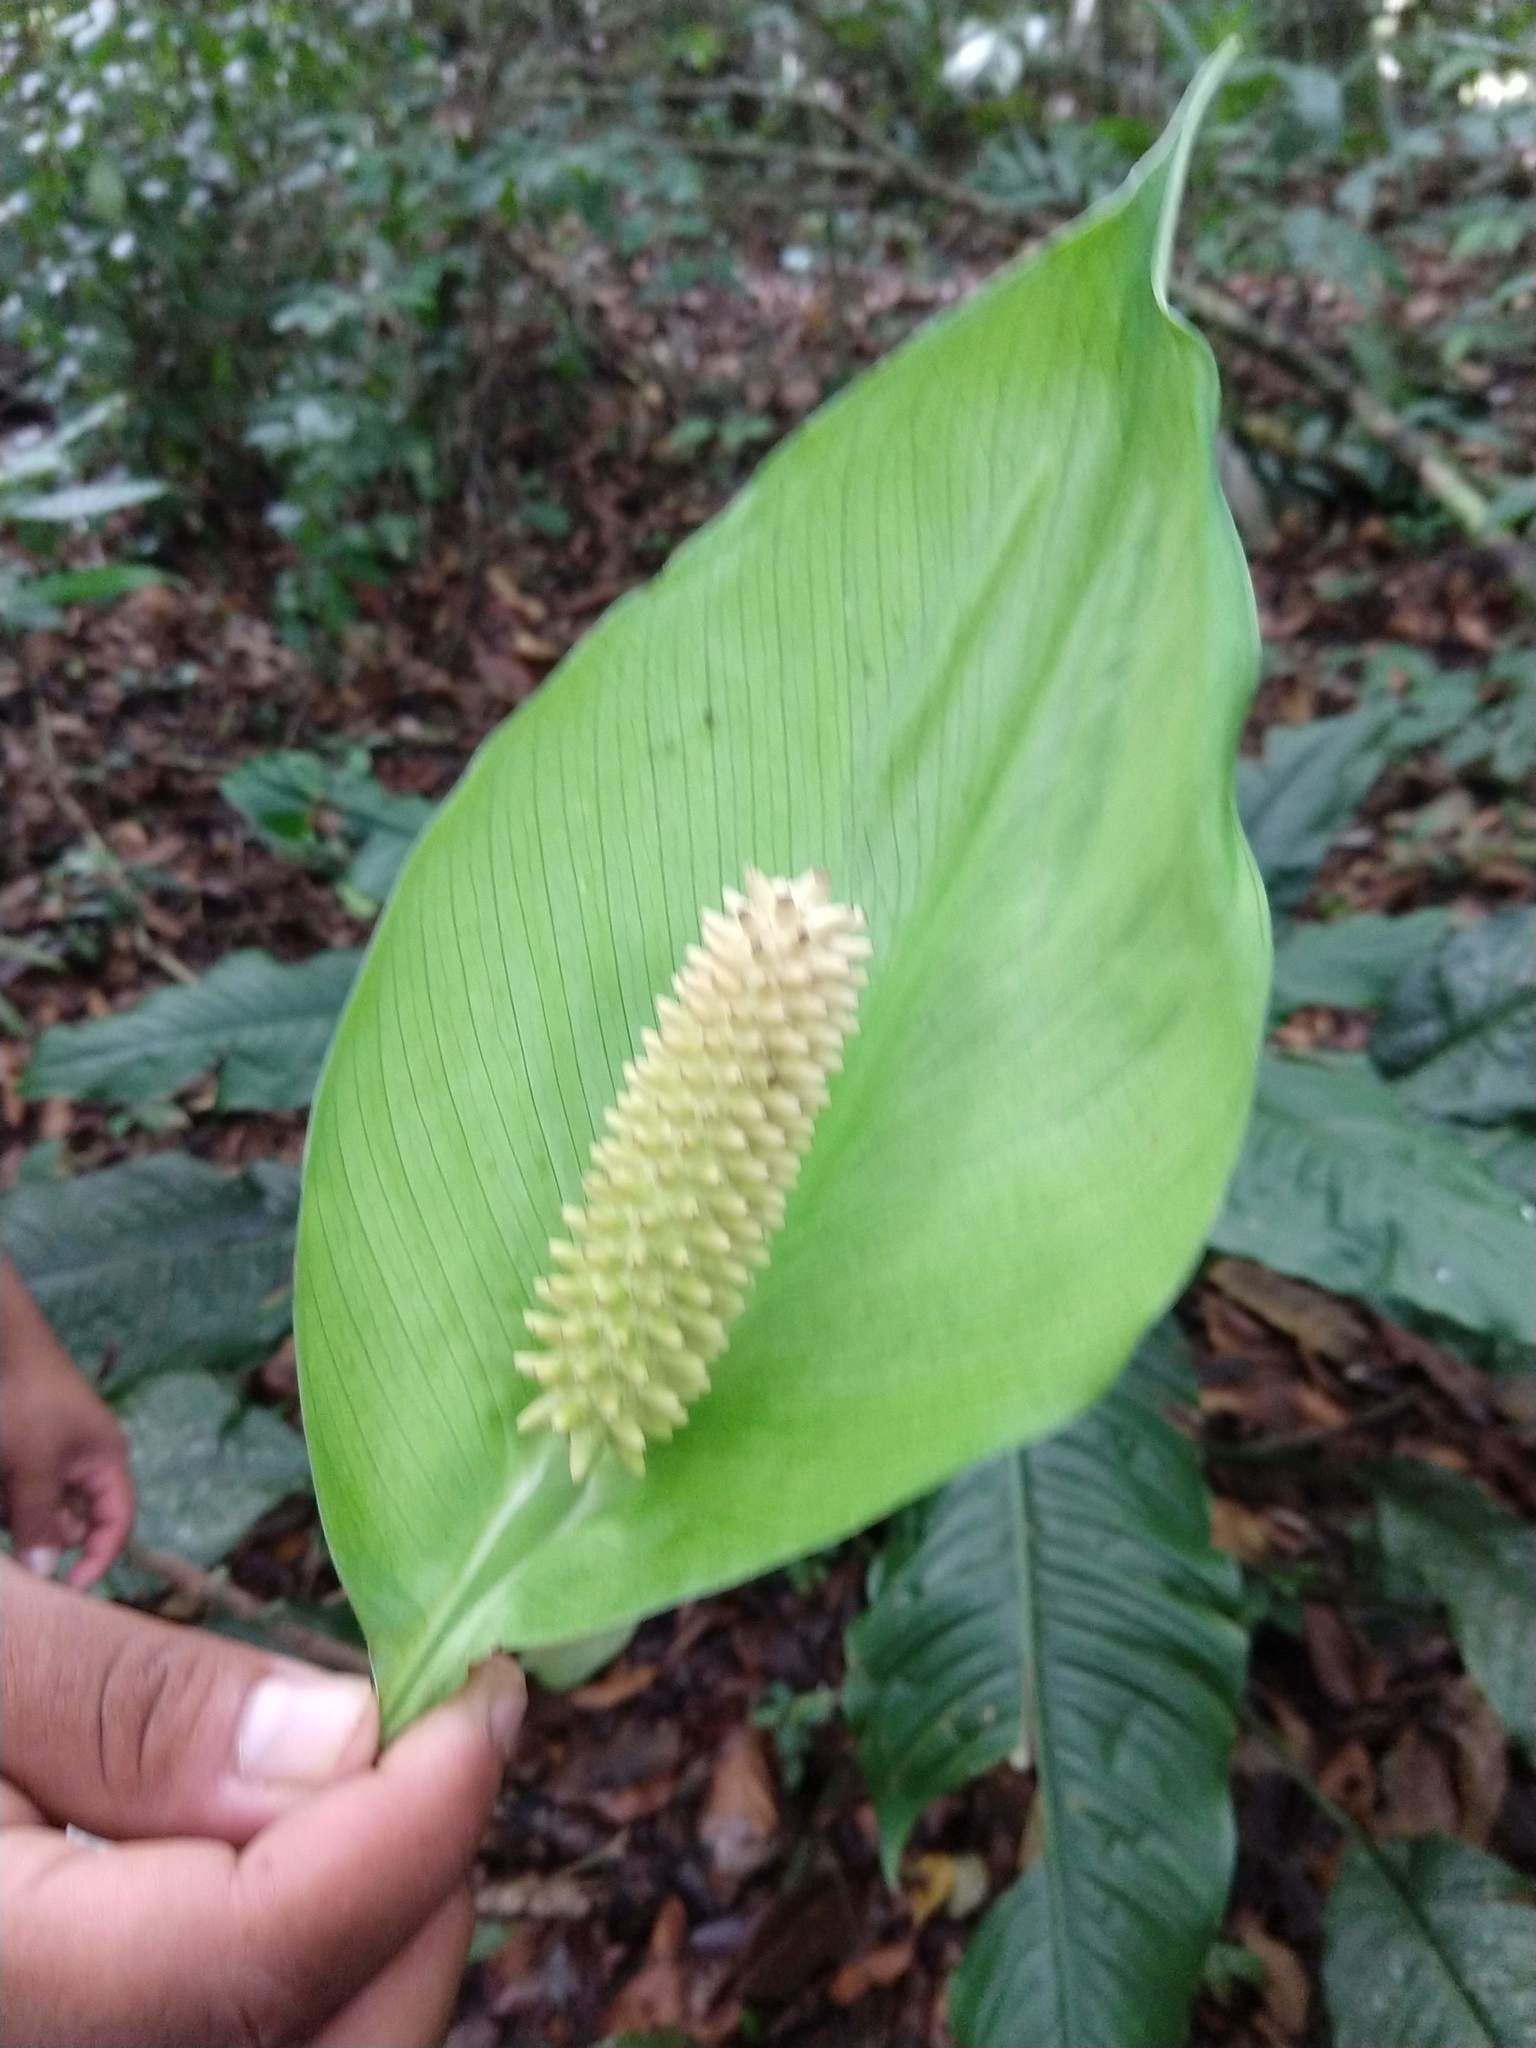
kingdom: Plantae
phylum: Tracheophyta
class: Liliopsida
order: Alismatales
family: Araceae
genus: Spathiphyllum
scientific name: Spathiphyllum cochlearispathum
